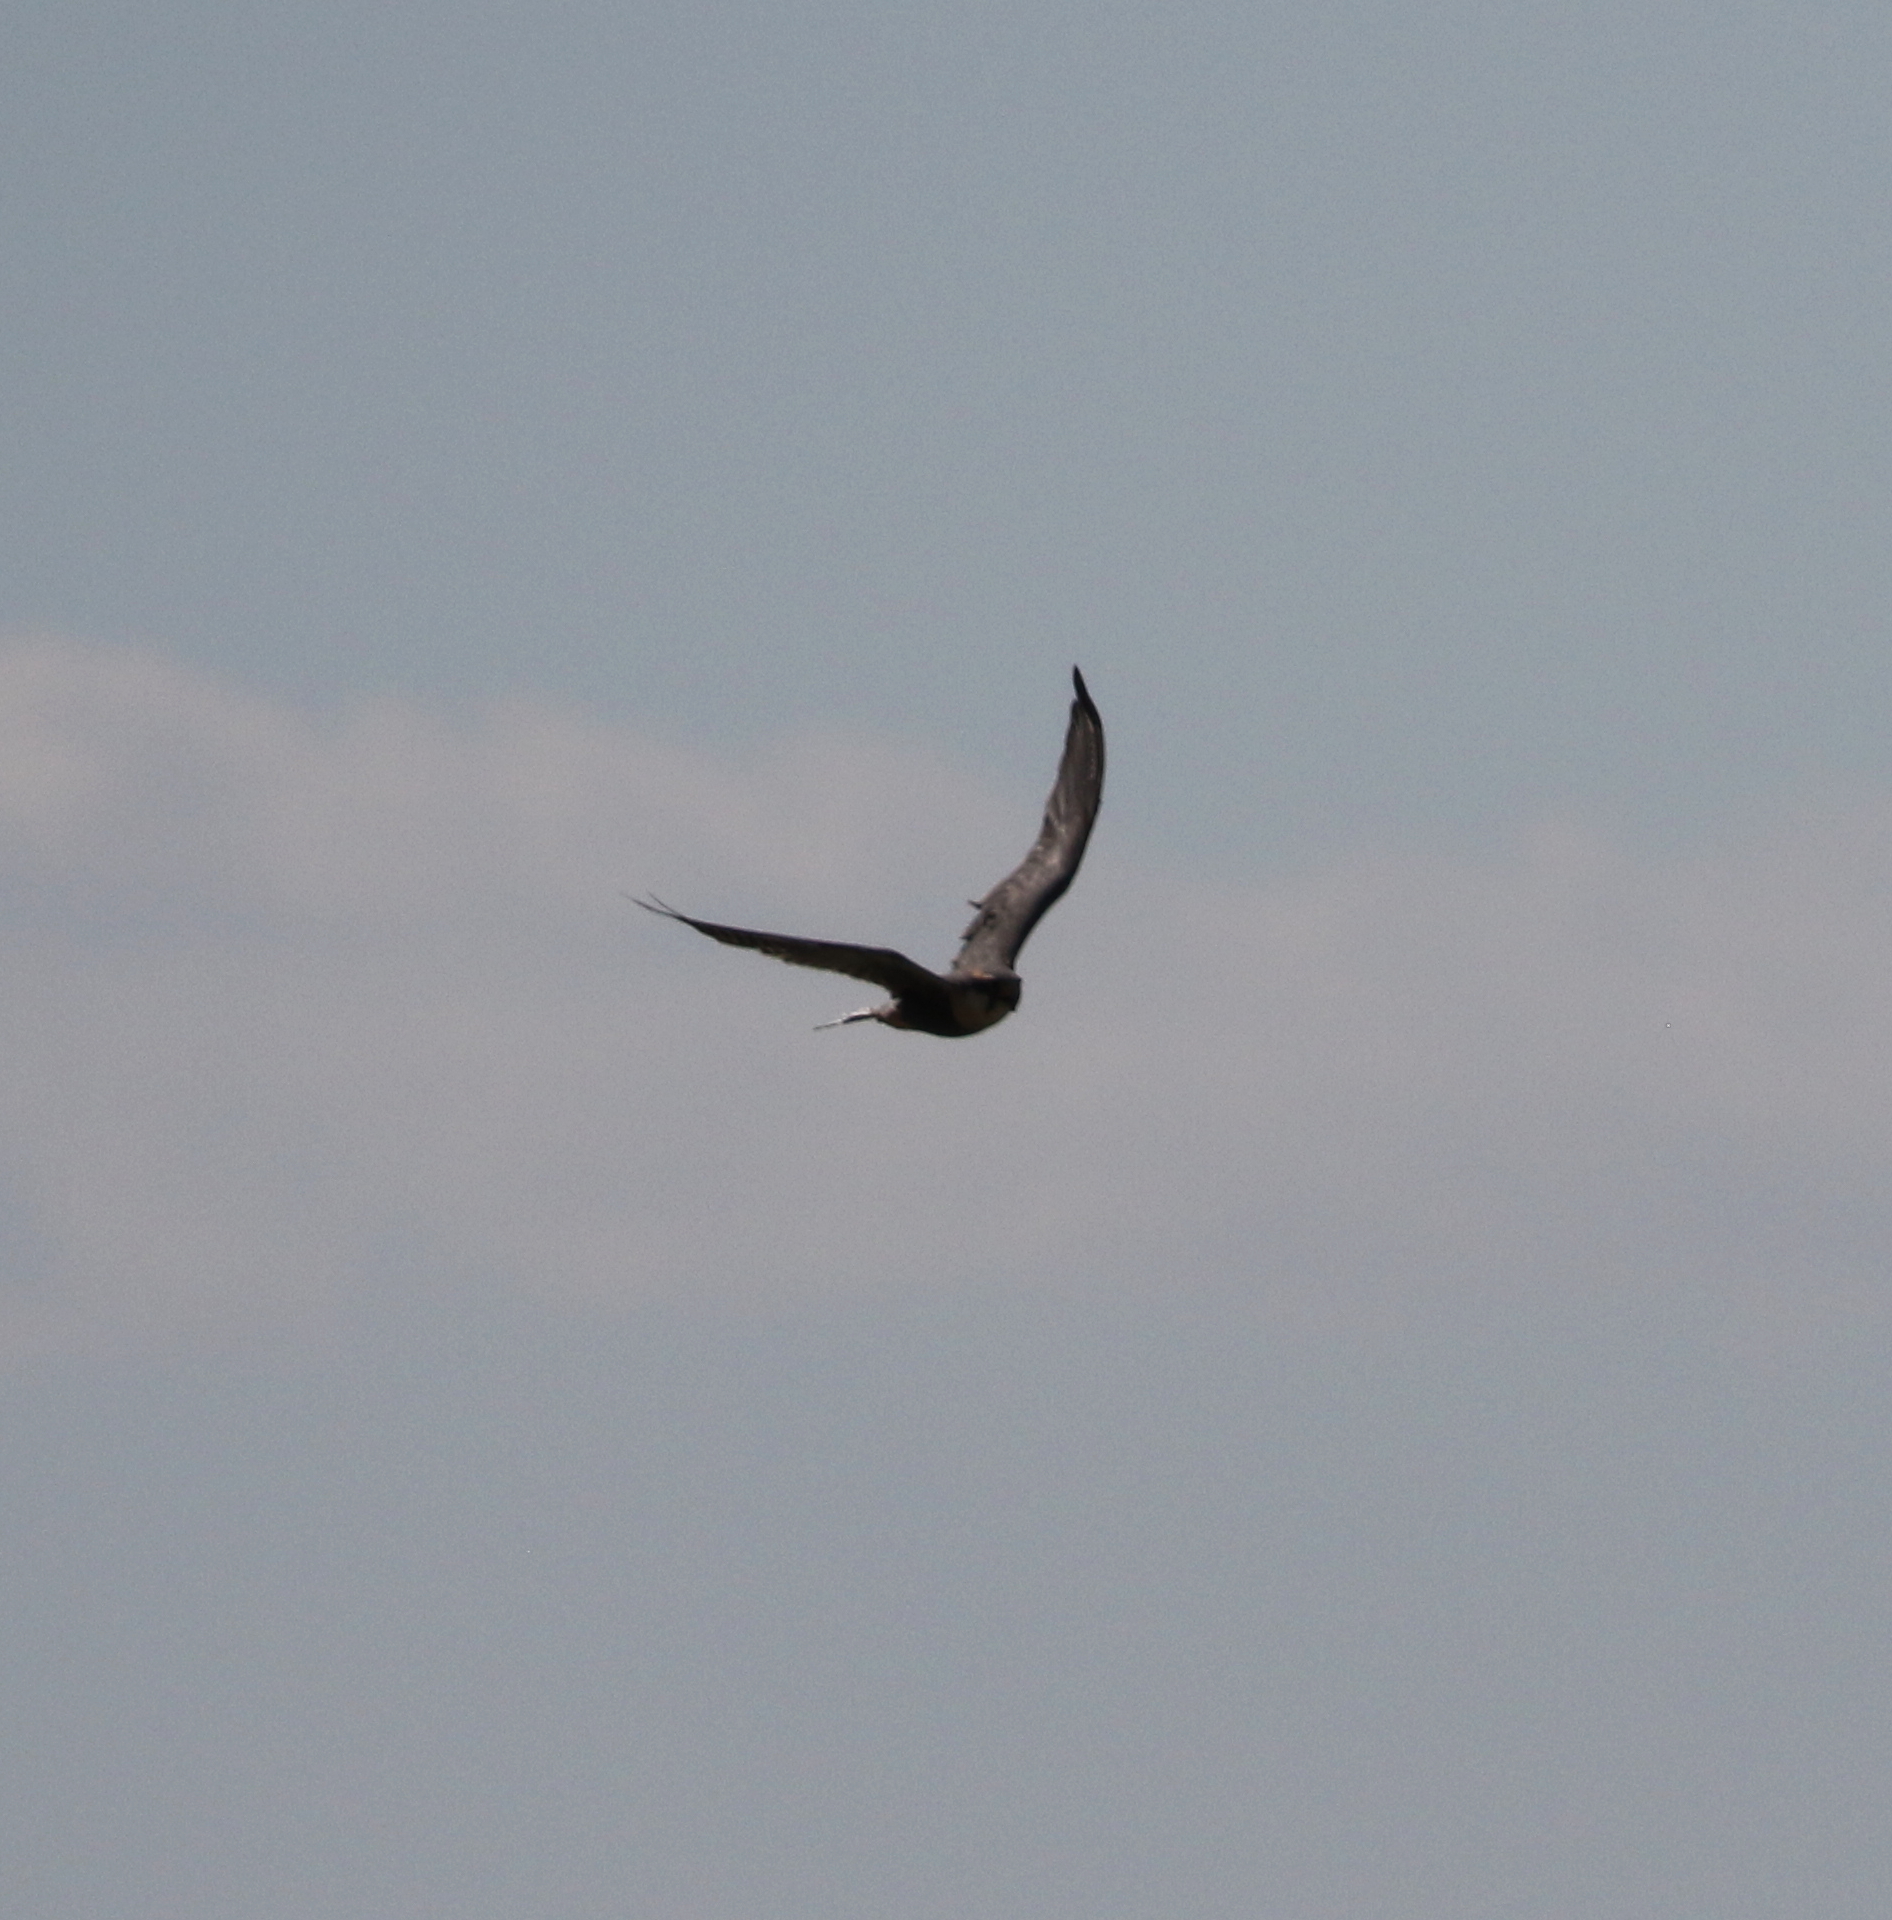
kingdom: Animalia
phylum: Chordata
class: Aves
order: Falconiformes
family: Falconidae
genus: Falco
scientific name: Falco femoralis
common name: Aplomado falcon
